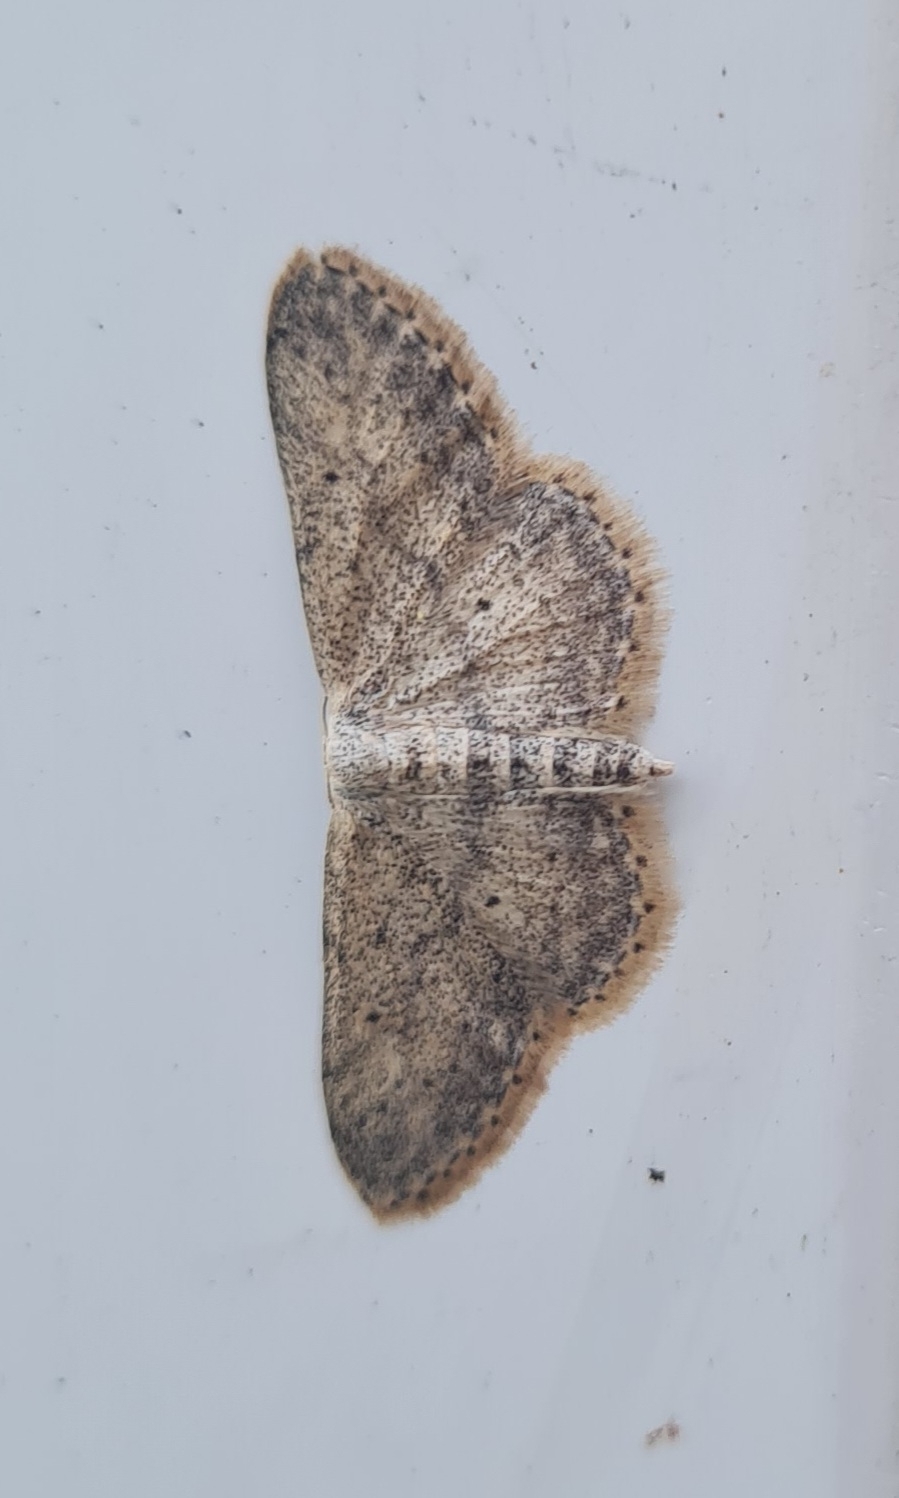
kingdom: Animalia
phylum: Arthropoda
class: Insecta
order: Lepidoptera
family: Geometridae
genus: Idaea
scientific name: Idaea seriata
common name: Small dusty wave
